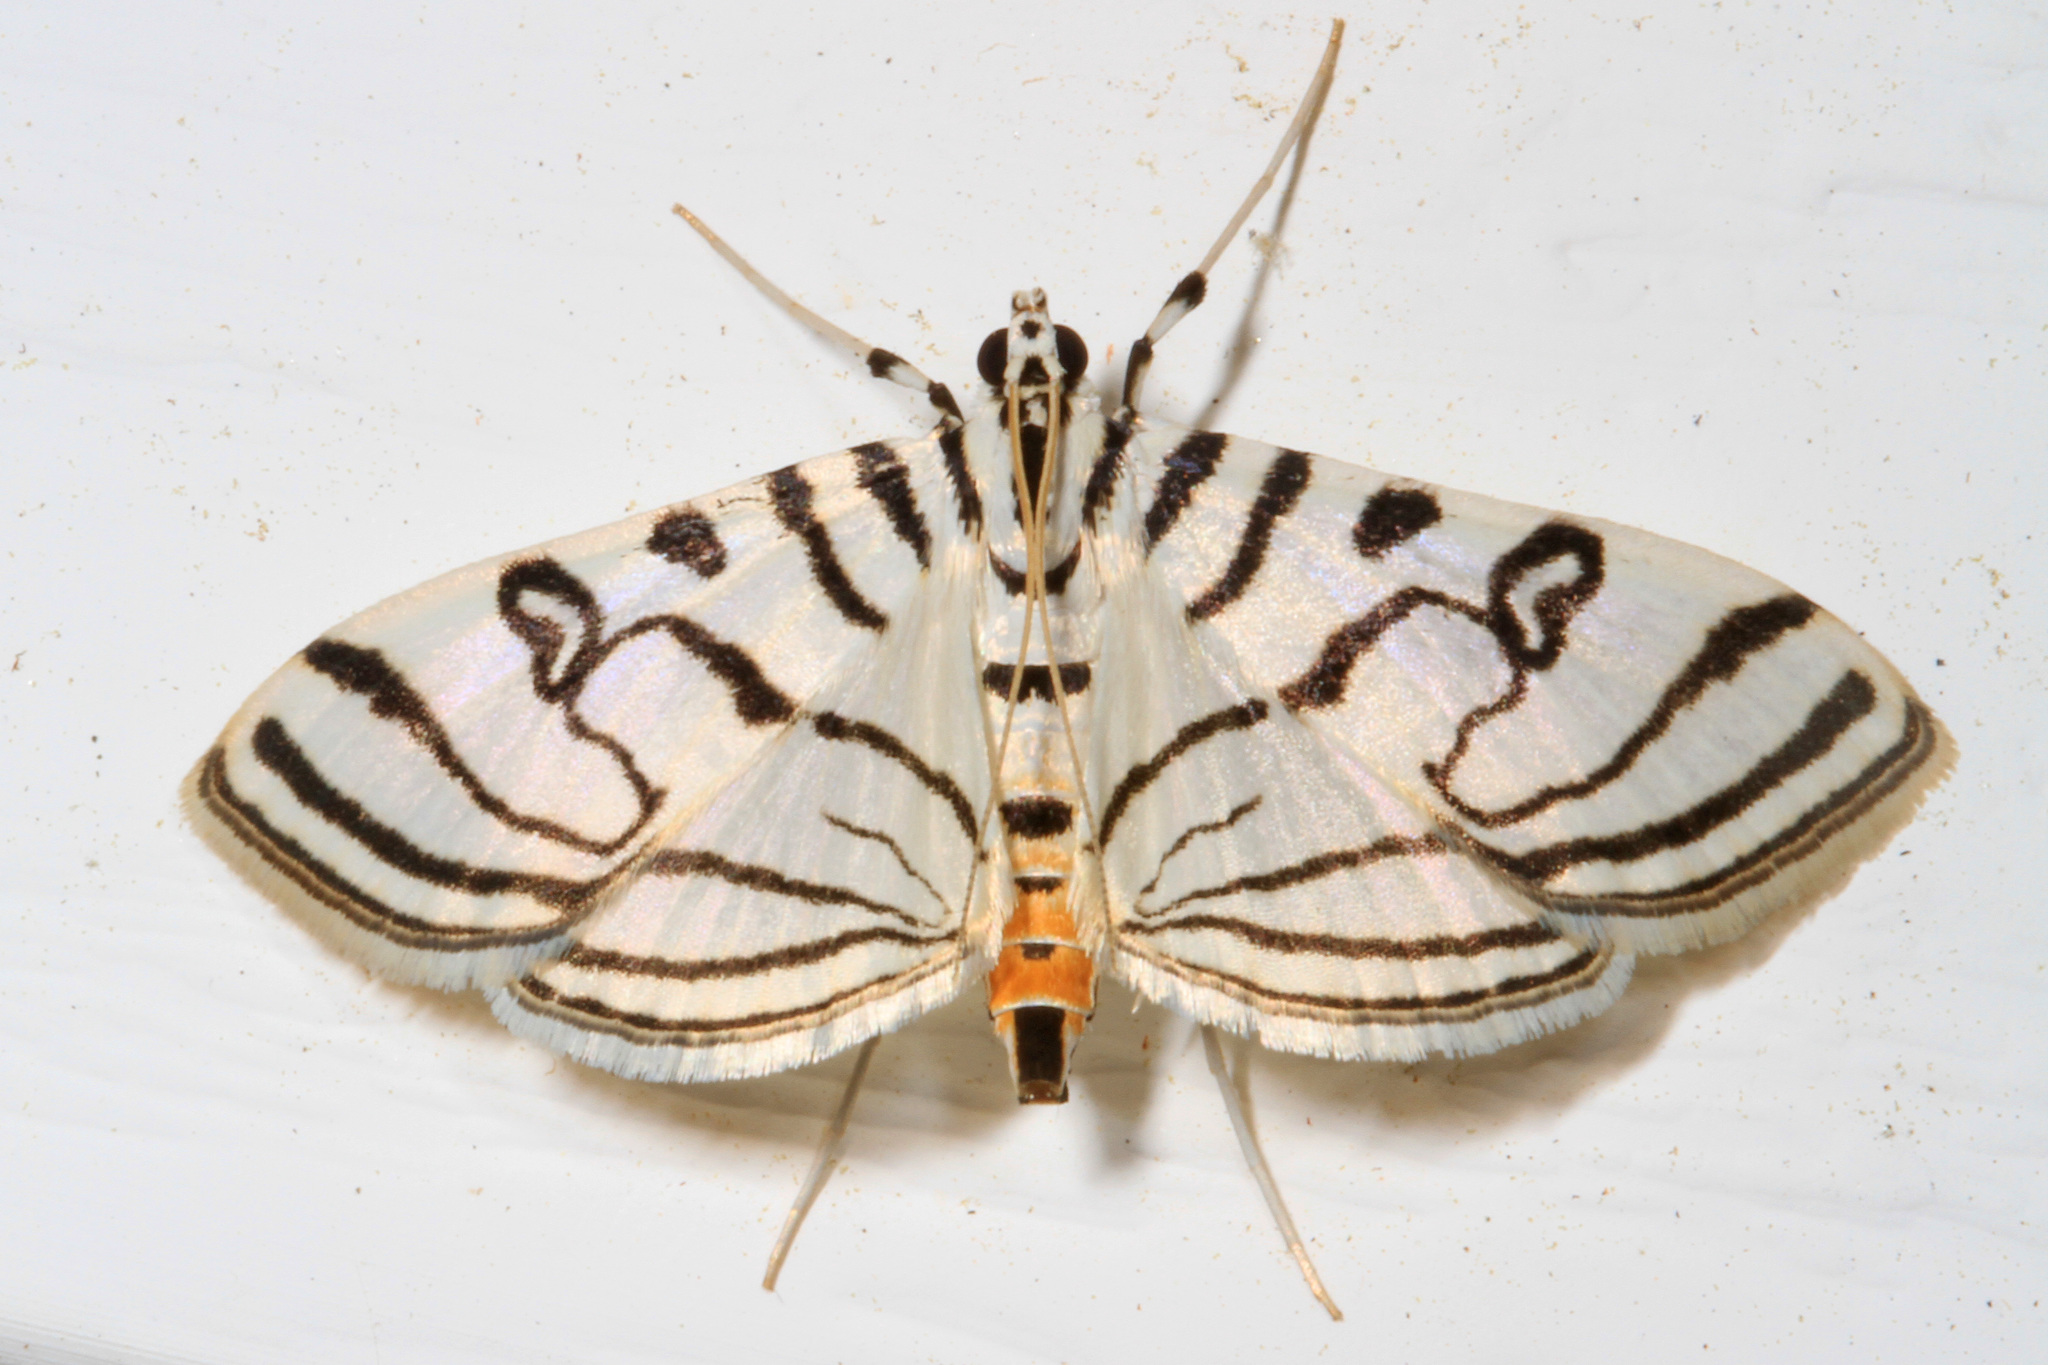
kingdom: Animalia
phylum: Arthropoda
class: Insecta
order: Lepidoptera
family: Crambidae
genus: Conchylodes
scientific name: Conchylodes ovulalis
